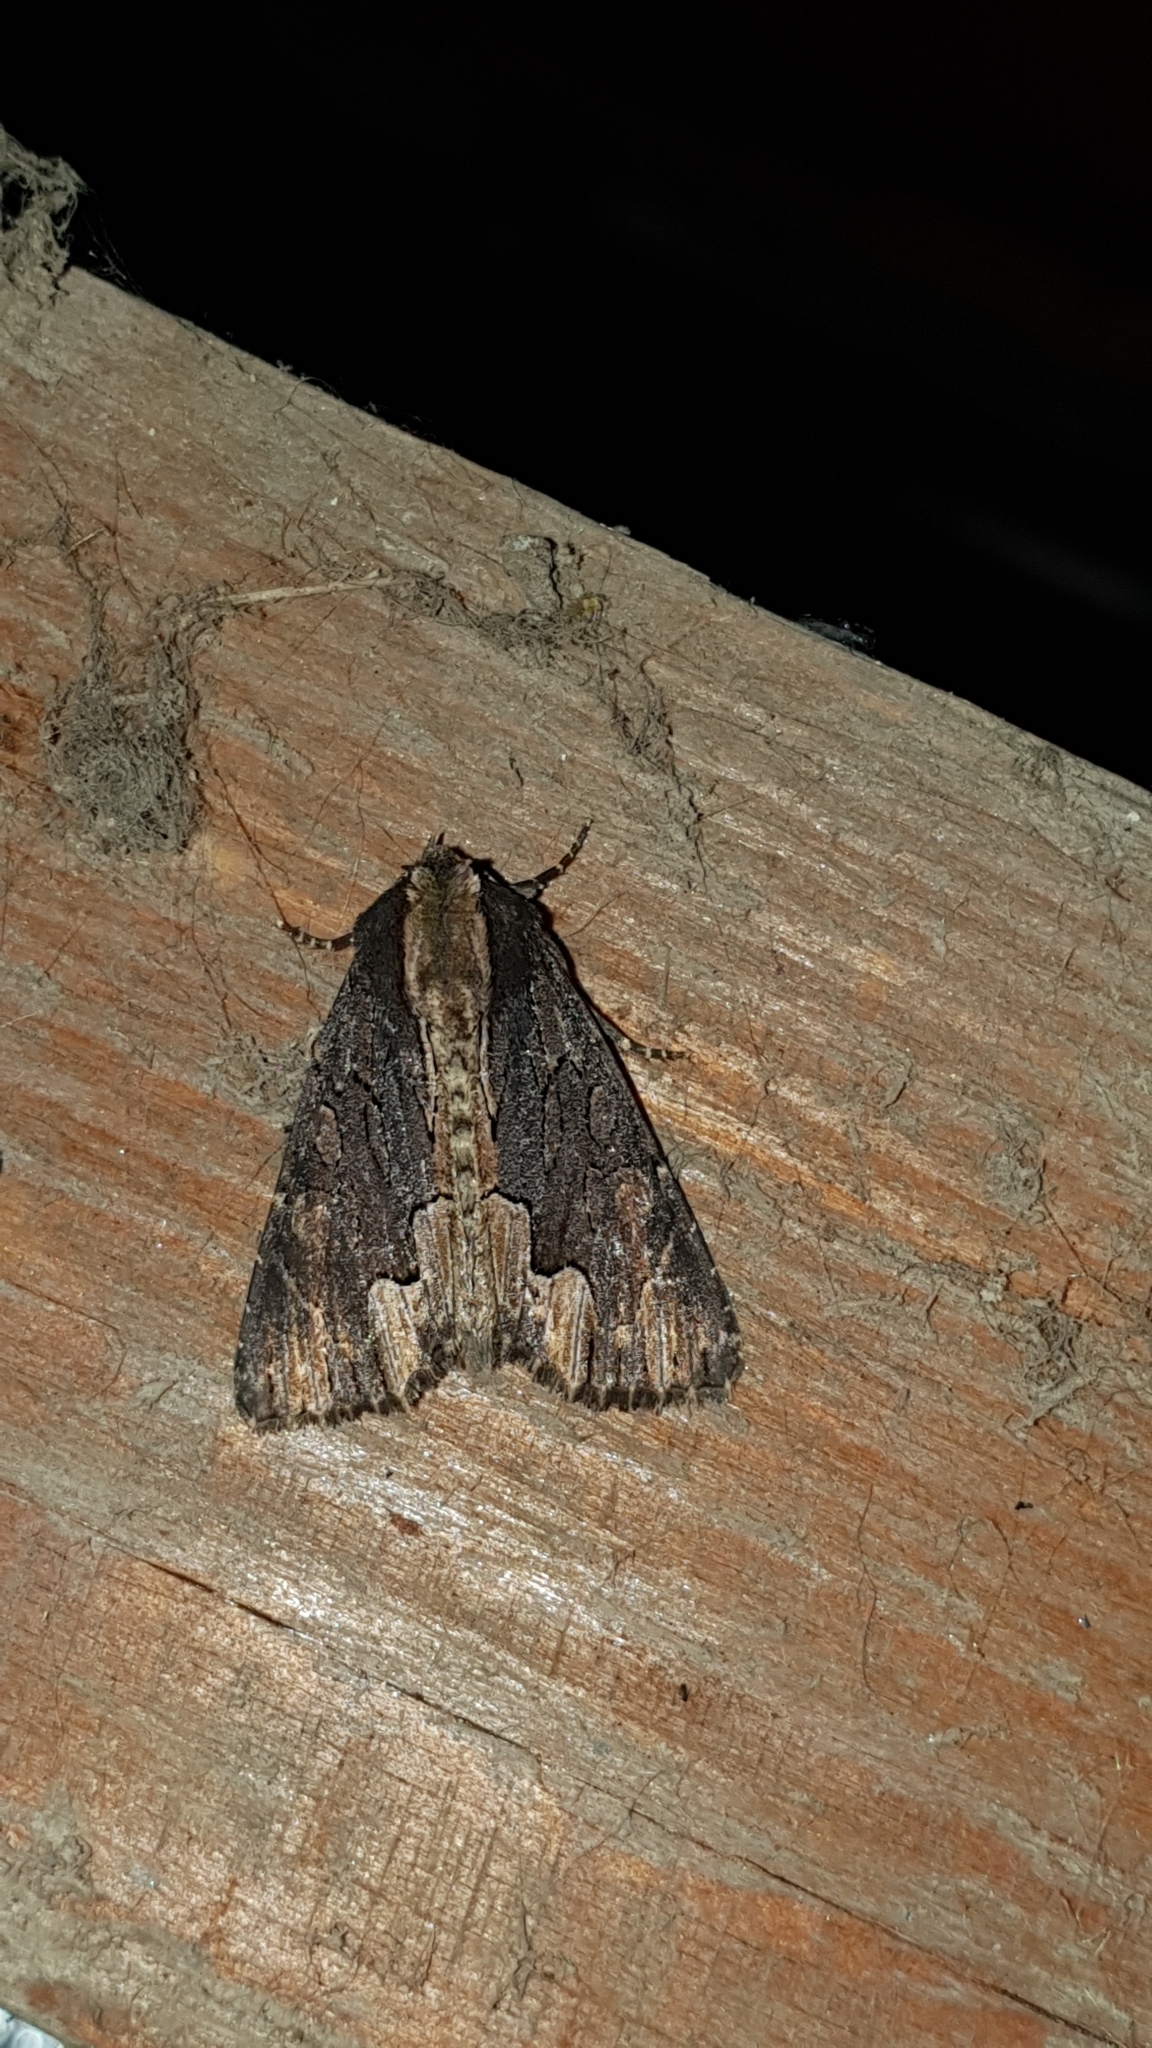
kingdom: Animalia
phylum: Arthropoda
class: Insecta
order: Lepidoptera
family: Noctuidae
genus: Dypterygia
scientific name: Dypterygia scabriuscula
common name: Bird's wing
